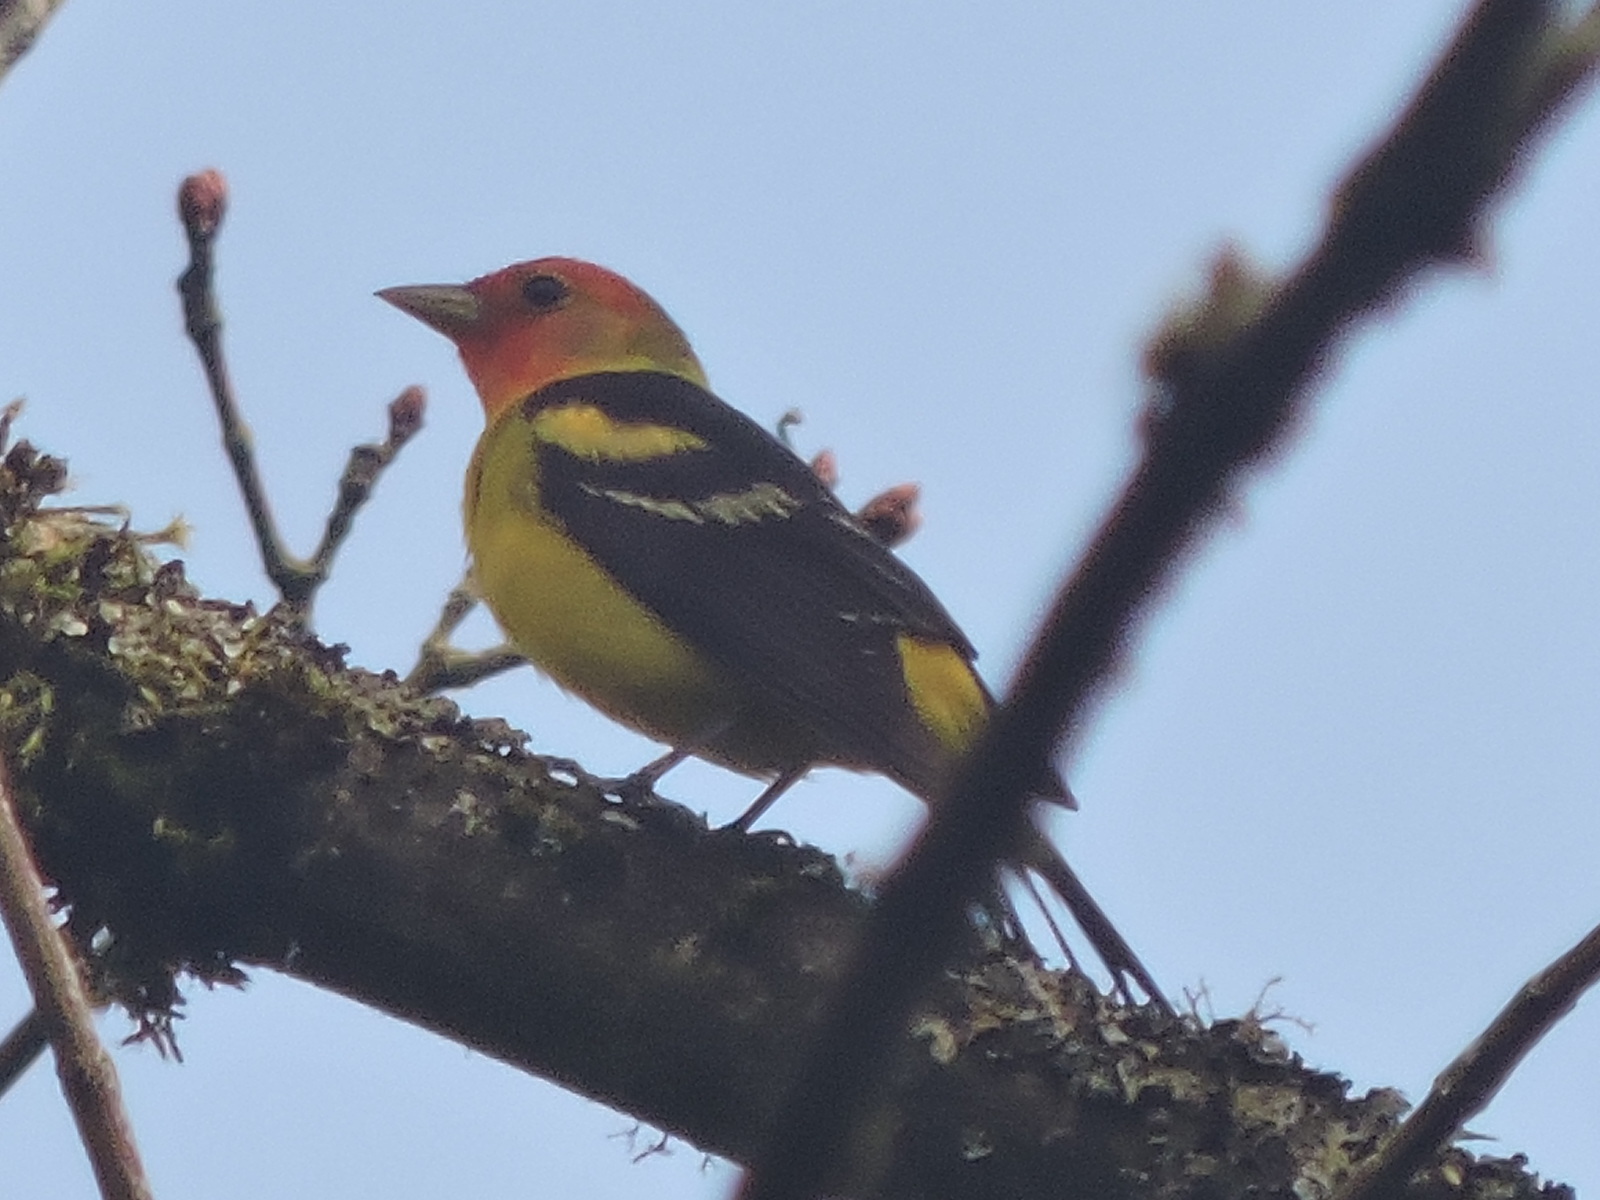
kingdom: Animalia
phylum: Chordata
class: Aves
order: Passeriformes
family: Cardinalidae
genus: Piranga
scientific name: Piranga ludoviciana
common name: Western tanager
